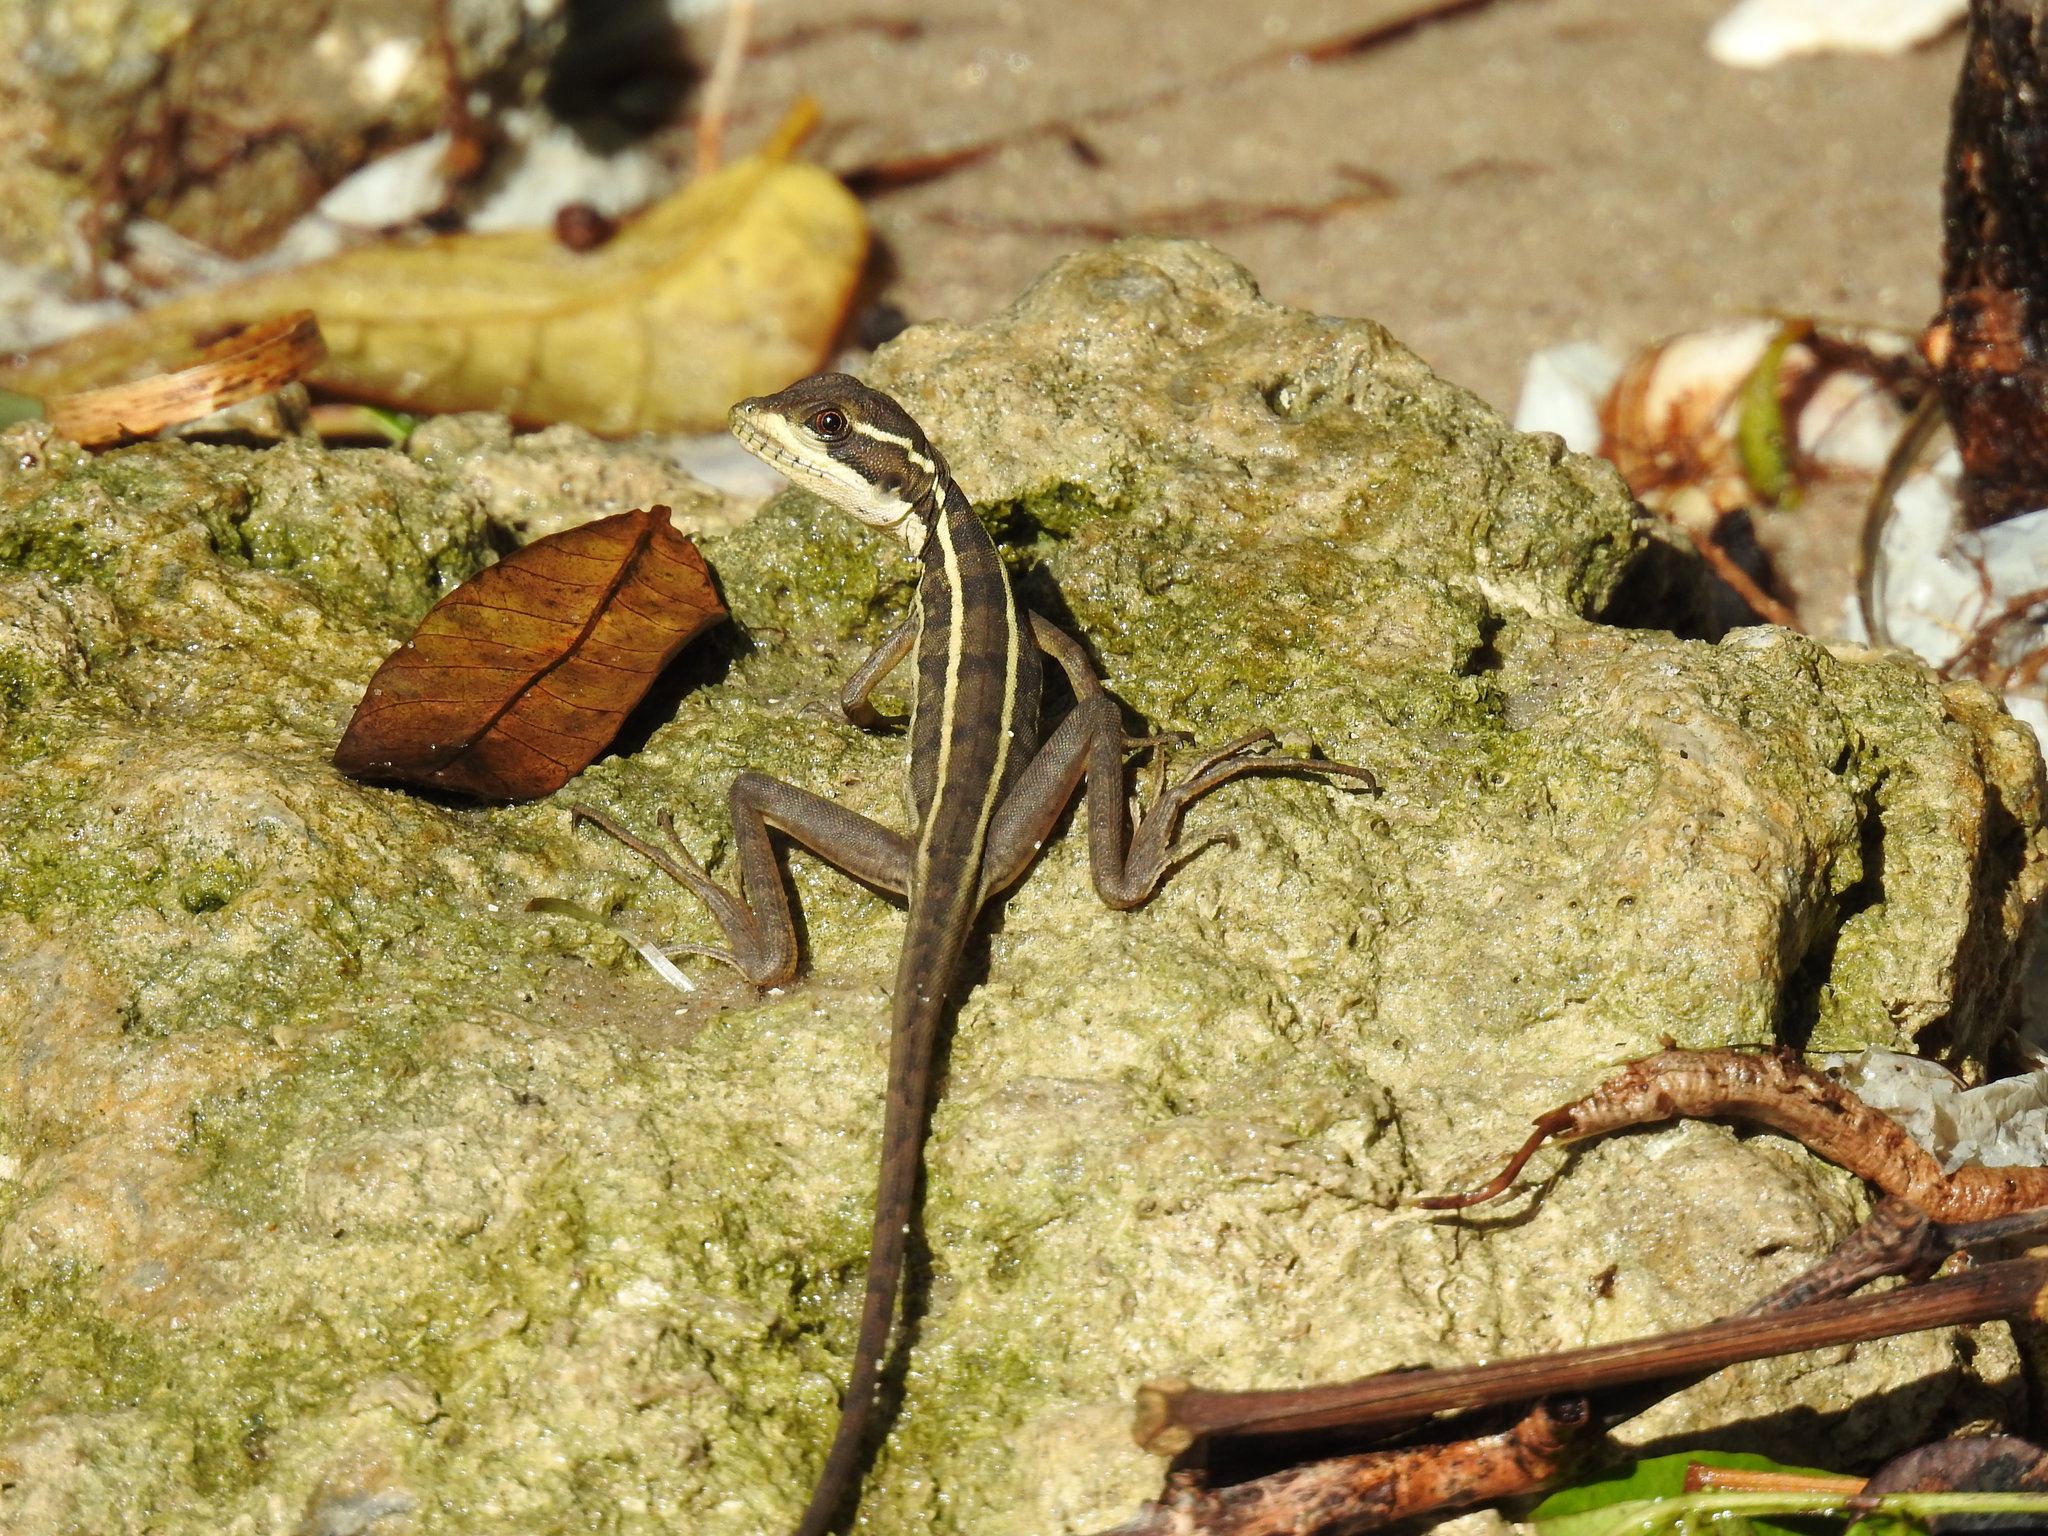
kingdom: Animalia
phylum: Chordata
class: Squamata
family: Corytophanidae
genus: Basiliscus
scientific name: Basiliscus vittatus
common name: Brown basilisk
